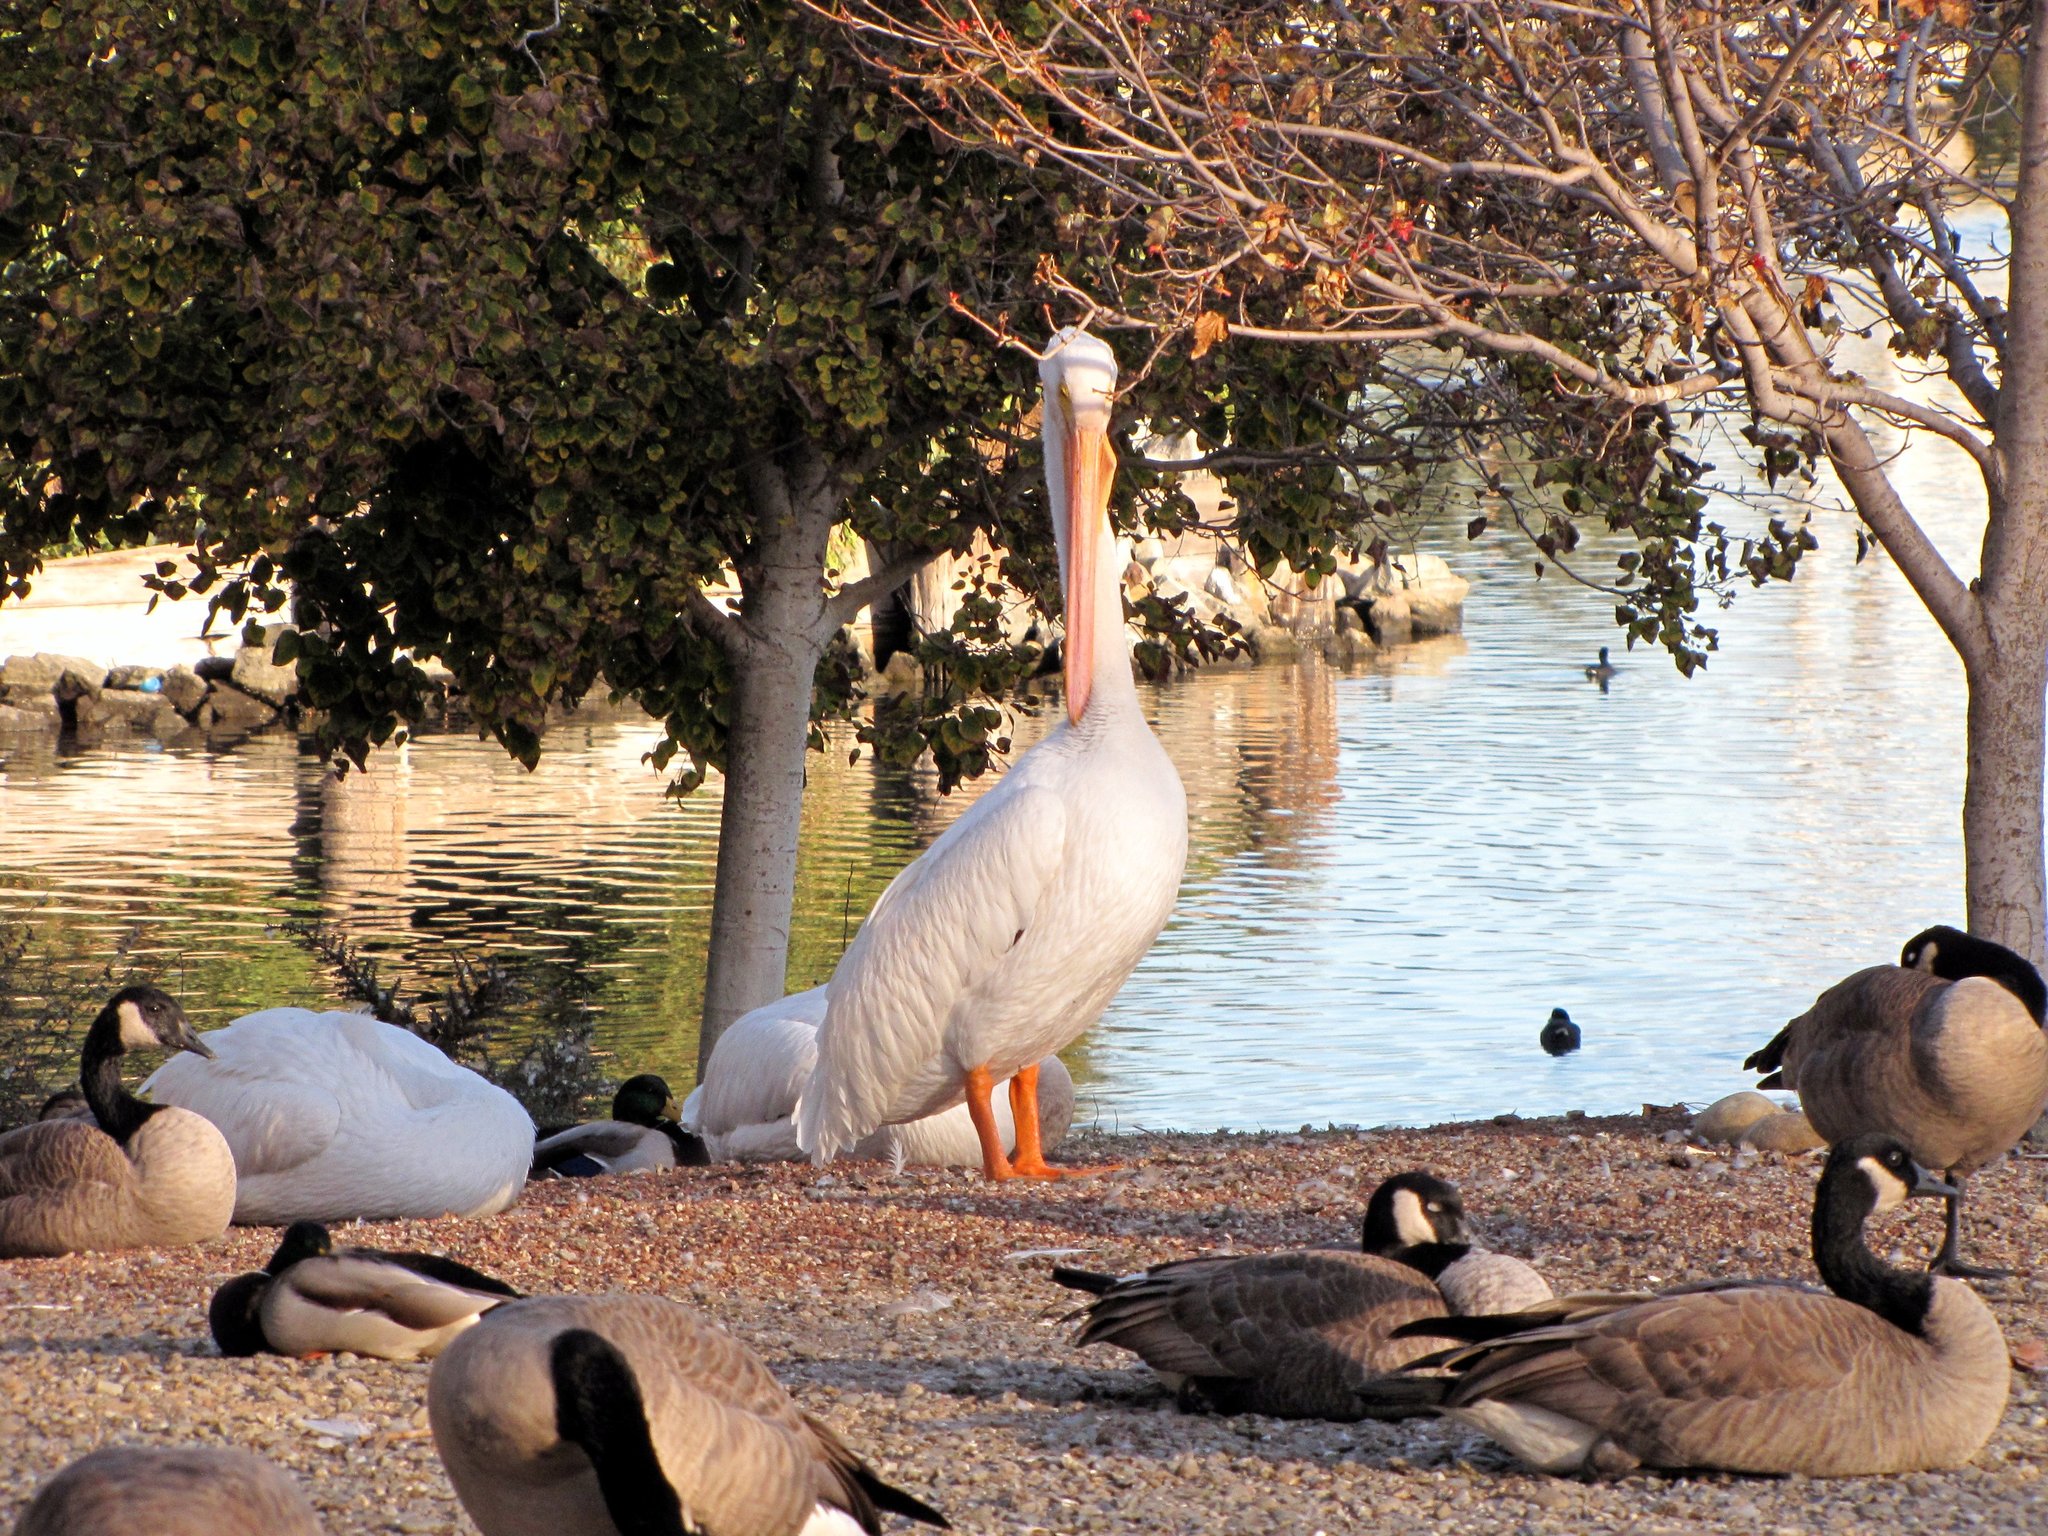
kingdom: Animalia
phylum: Chordata
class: Aves
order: Pelecaniformes
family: Pelecanidae
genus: Pelecanus
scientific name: Pelecanus erythrorhynchos
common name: American white pelican
